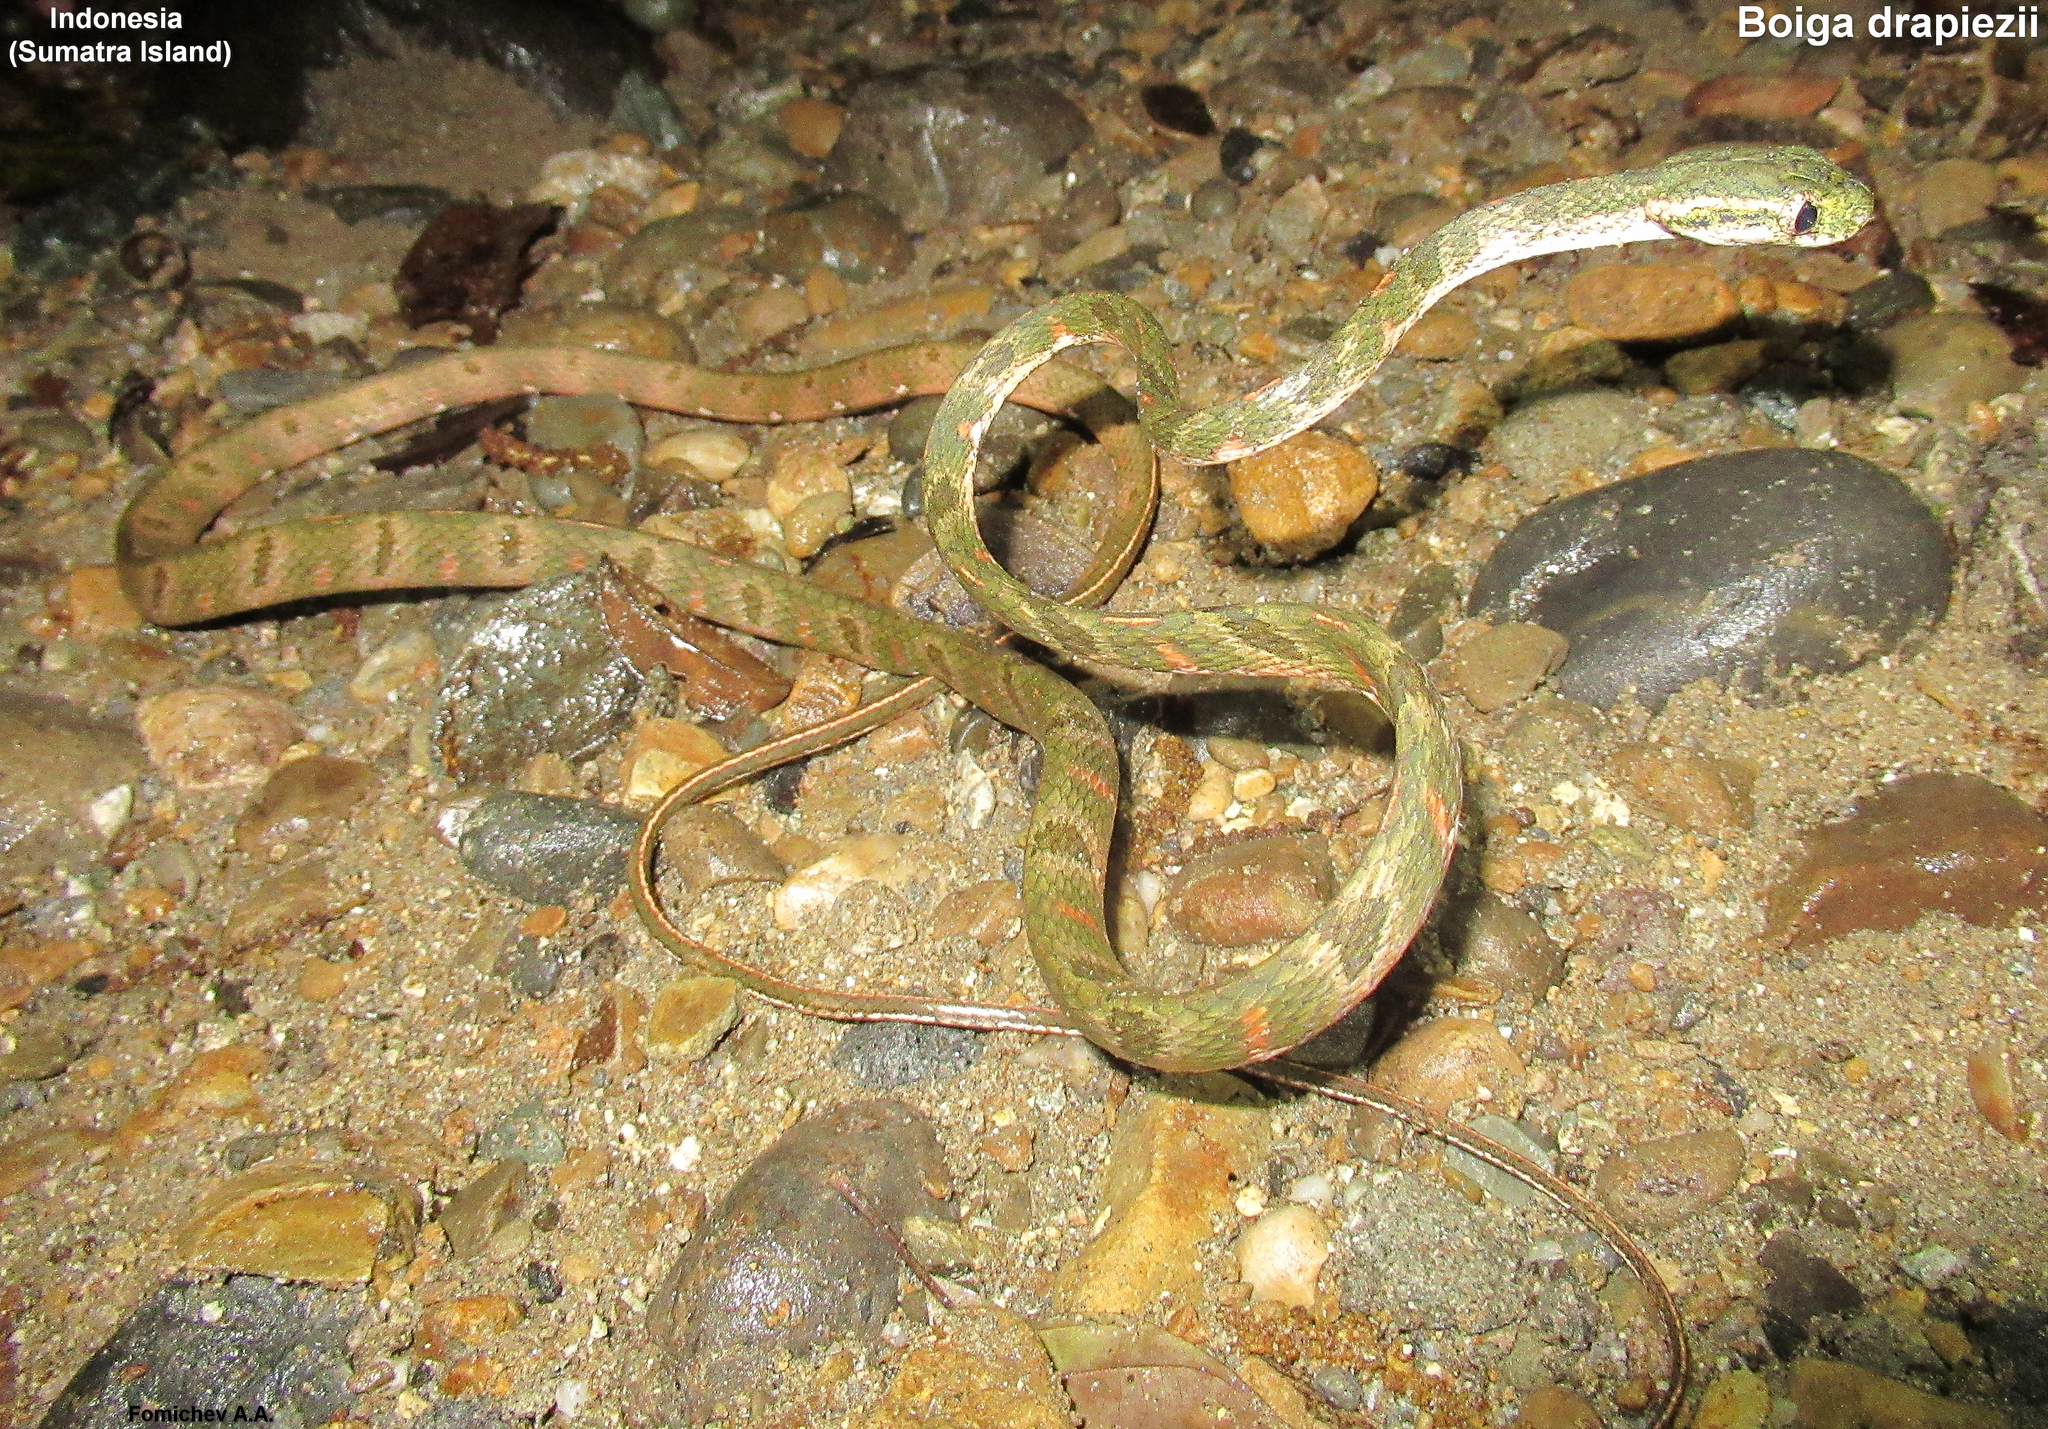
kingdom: Animalia
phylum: Chordata
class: Squamata
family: Colubridae
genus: Boiga
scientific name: Boiga drapiezii
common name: White-spotted cat snake
